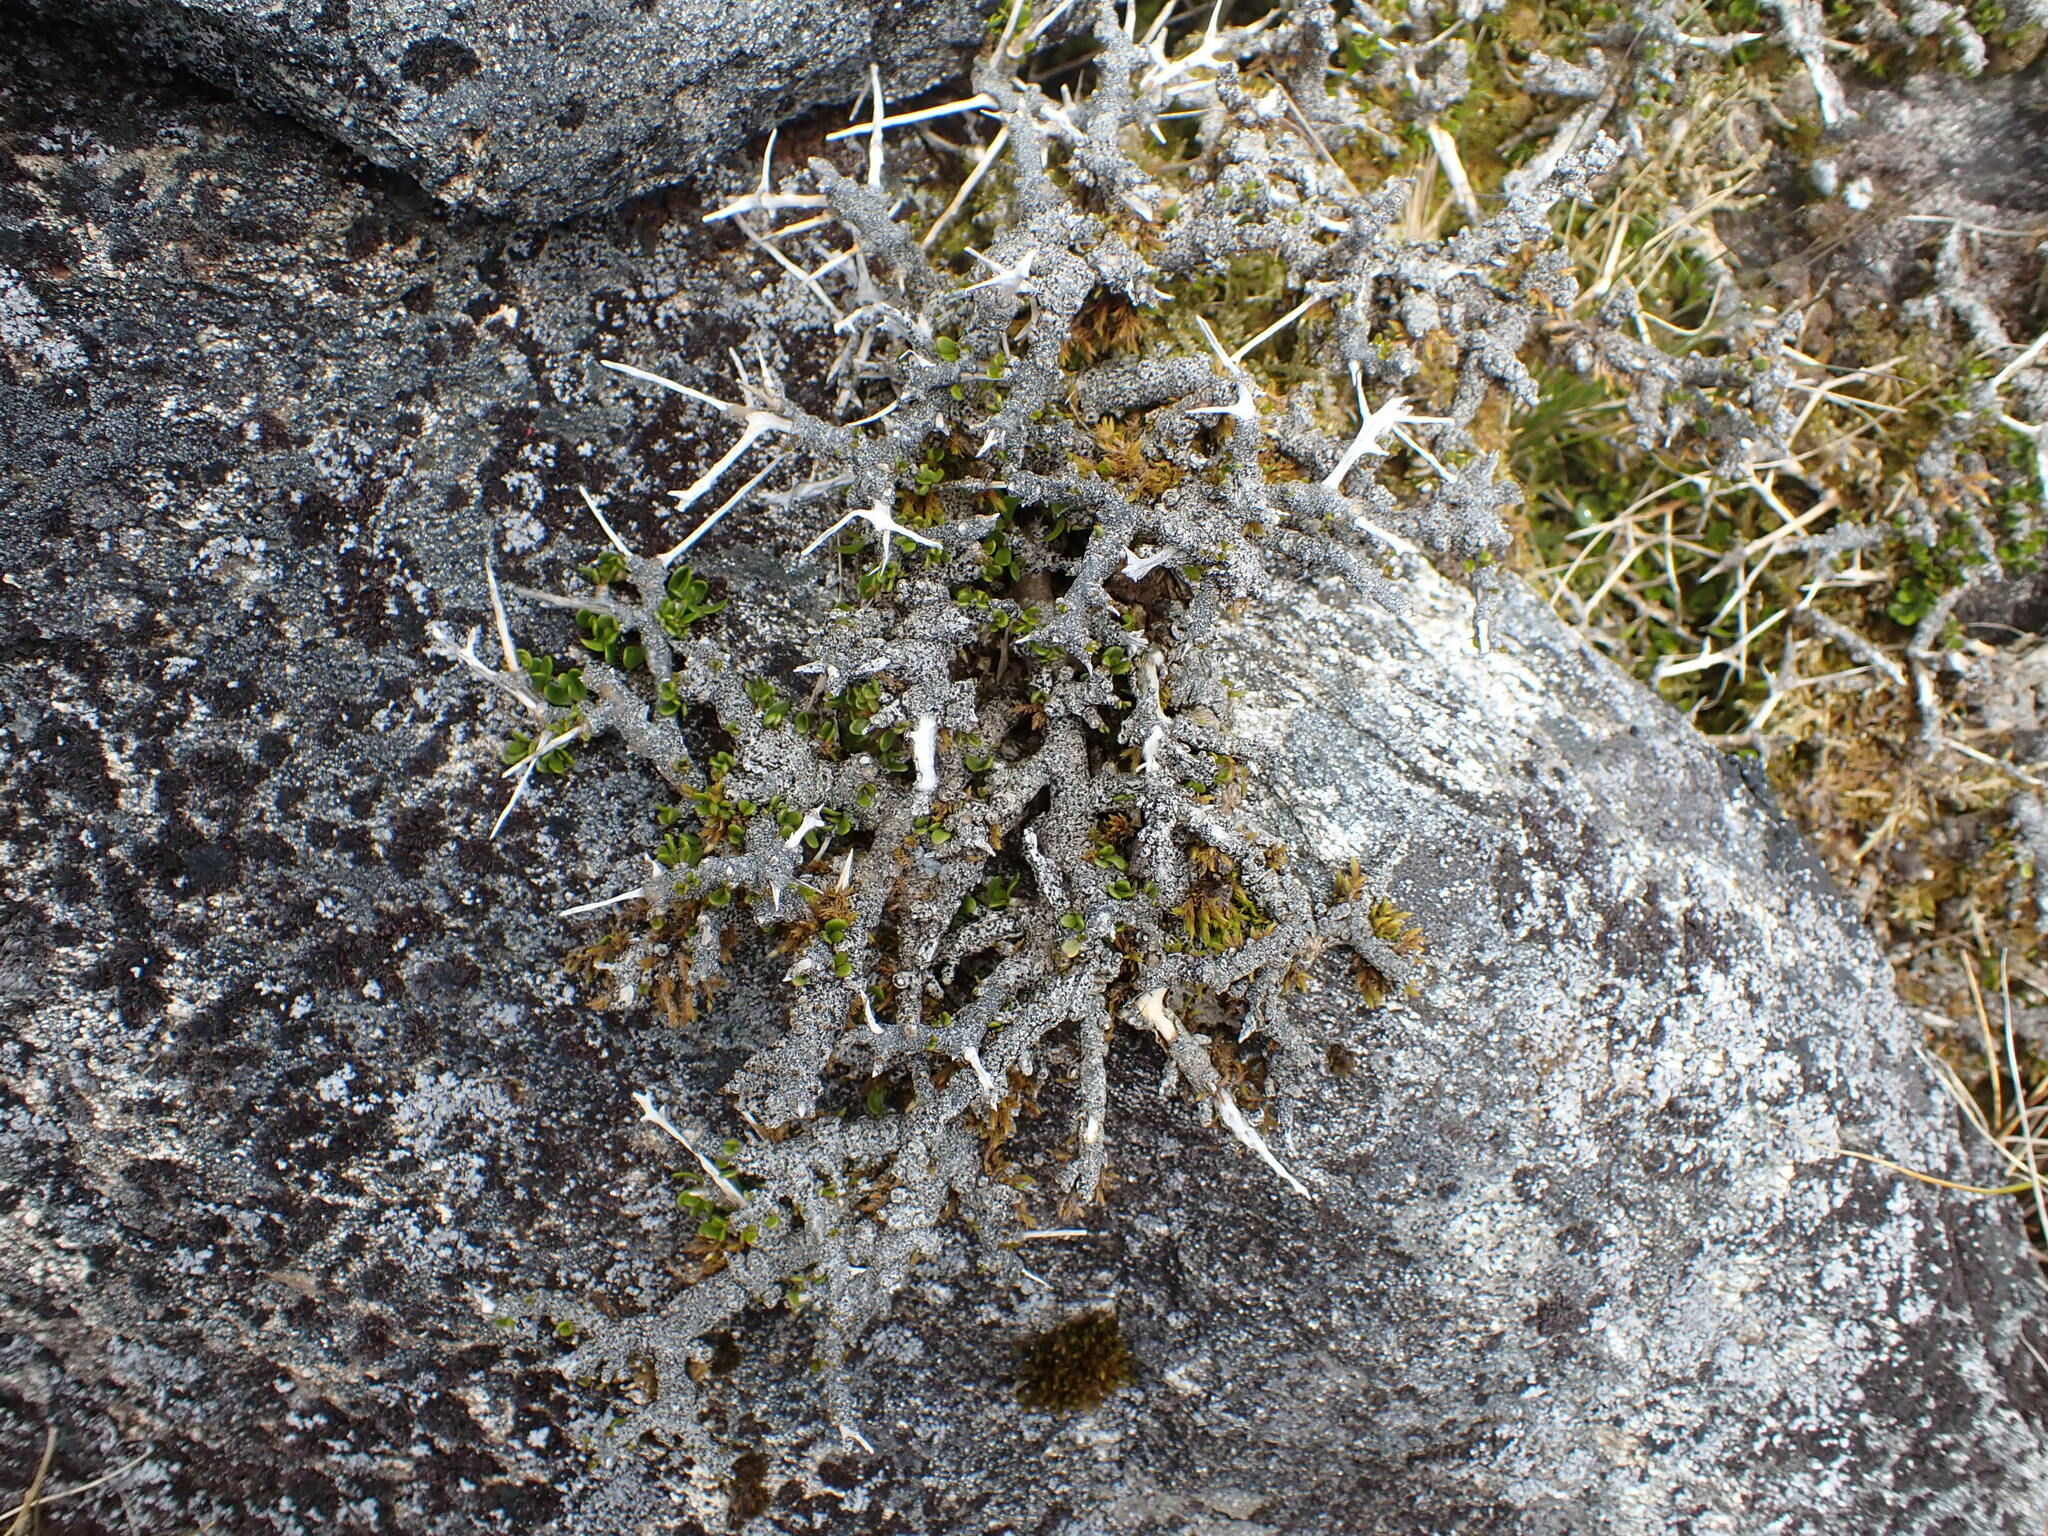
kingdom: Plantae
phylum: Tracheophyta
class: Magnoliopsida
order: Malpighiales
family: Violaceae
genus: Melicytus
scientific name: Melicytus alpinus
